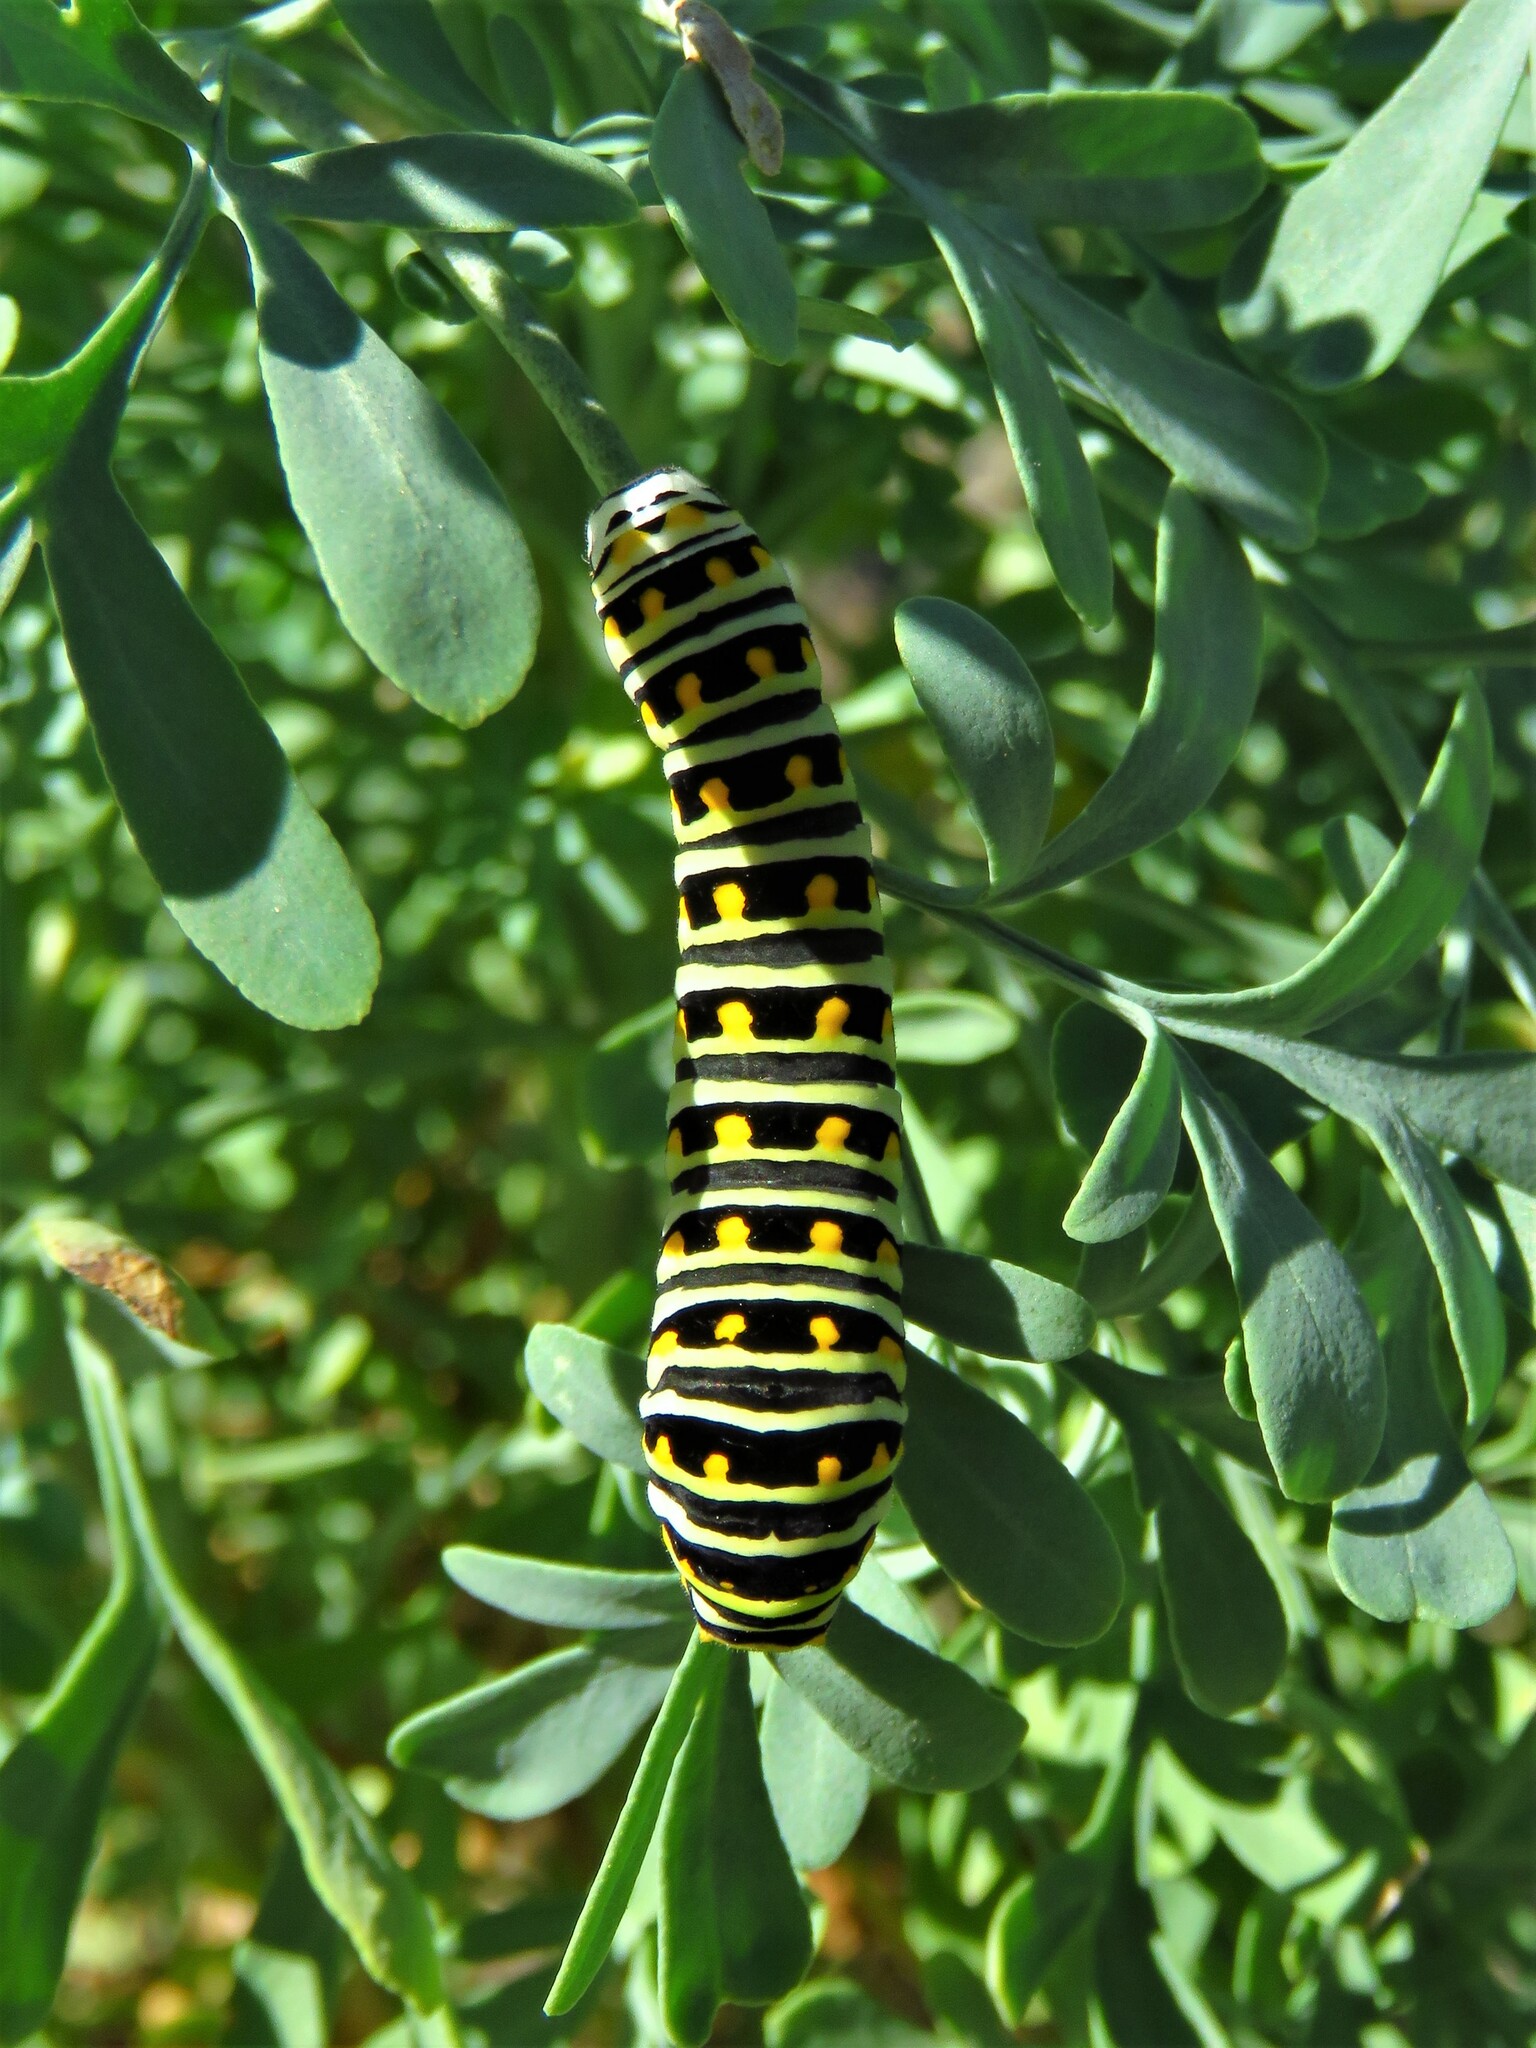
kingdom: Animalia
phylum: Arthropoda
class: Insecta
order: Lepidoptera
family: Papilionidae
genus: Papilio
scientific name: Papilio polyxenes
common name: Black swallowtail
